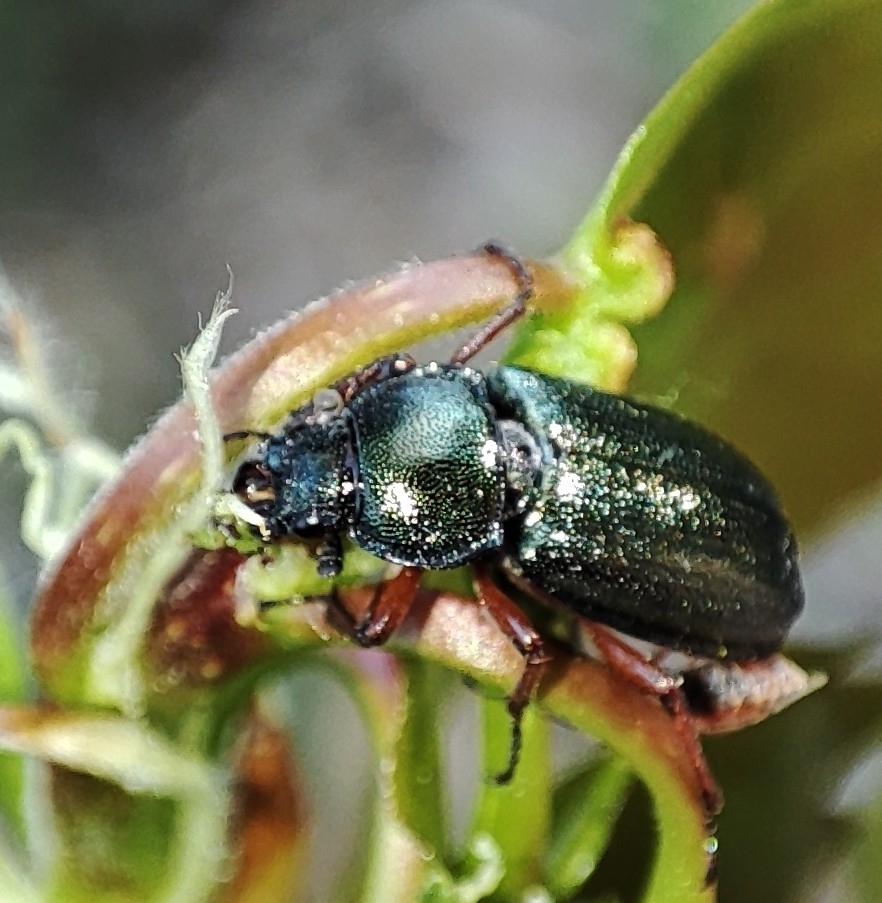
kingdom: Animalia
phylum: Arthropoda
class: Insecta
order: Coleoptera
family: Lucanidae
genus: Platycerus
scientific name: Platycerus caraboides
